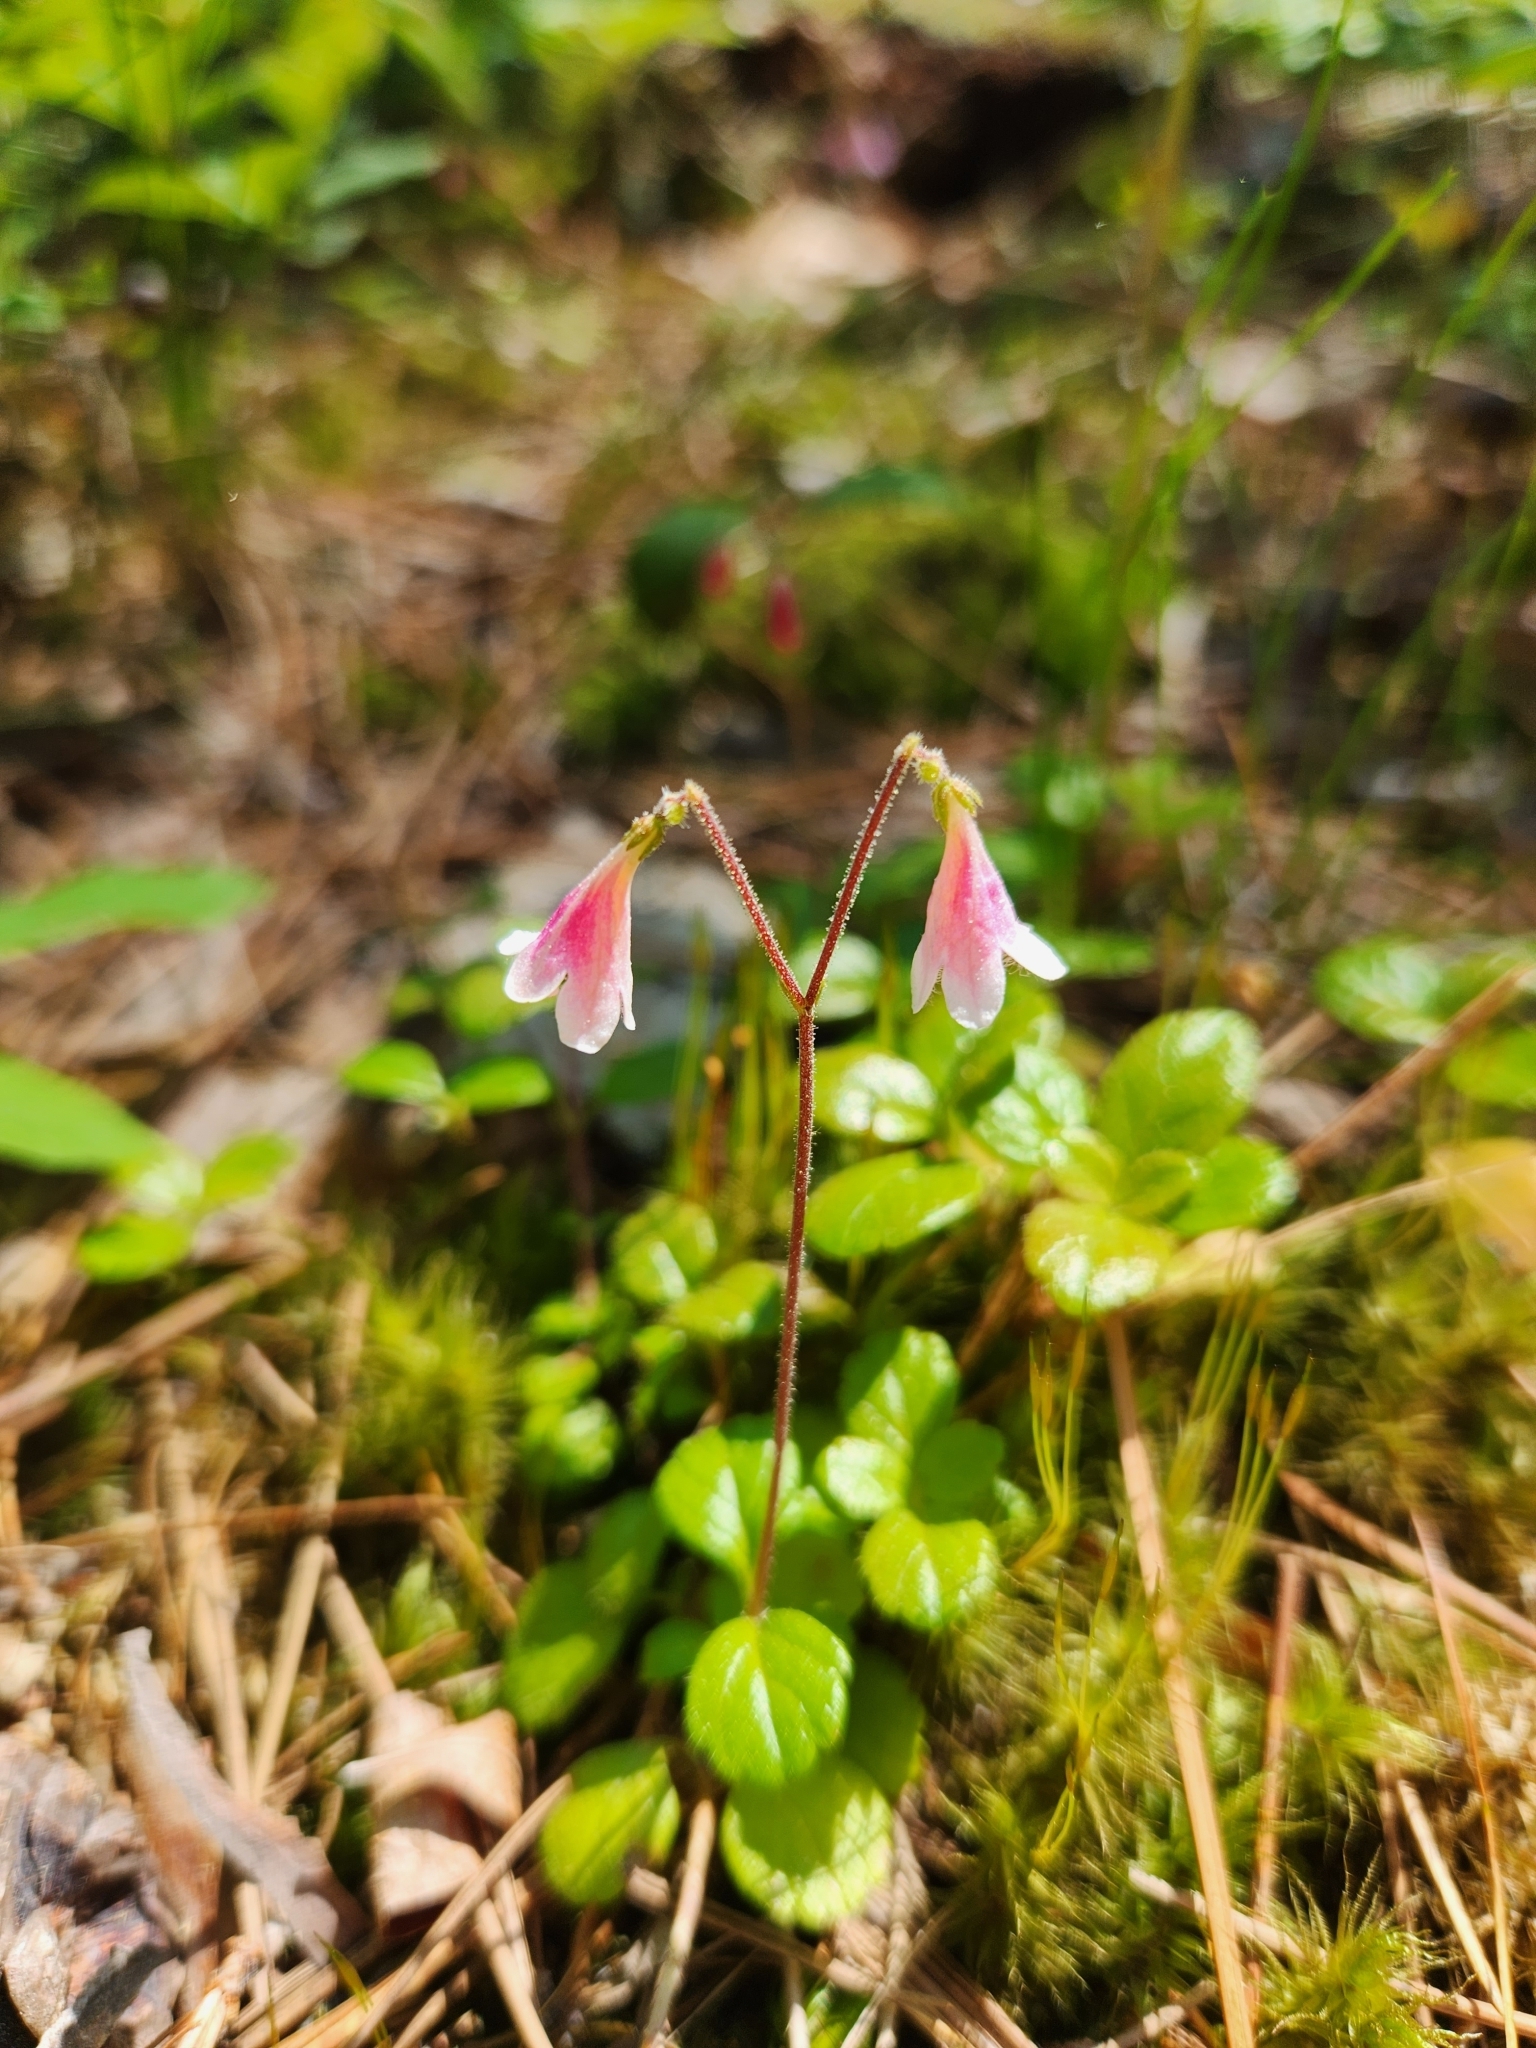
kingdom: Plantae
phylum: Tracheophyta
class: Magnoliopsida
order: Dipsacales
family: Caprifoliaceae
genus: Linnaea
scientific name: Linnaea borealis
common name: Twinflower
